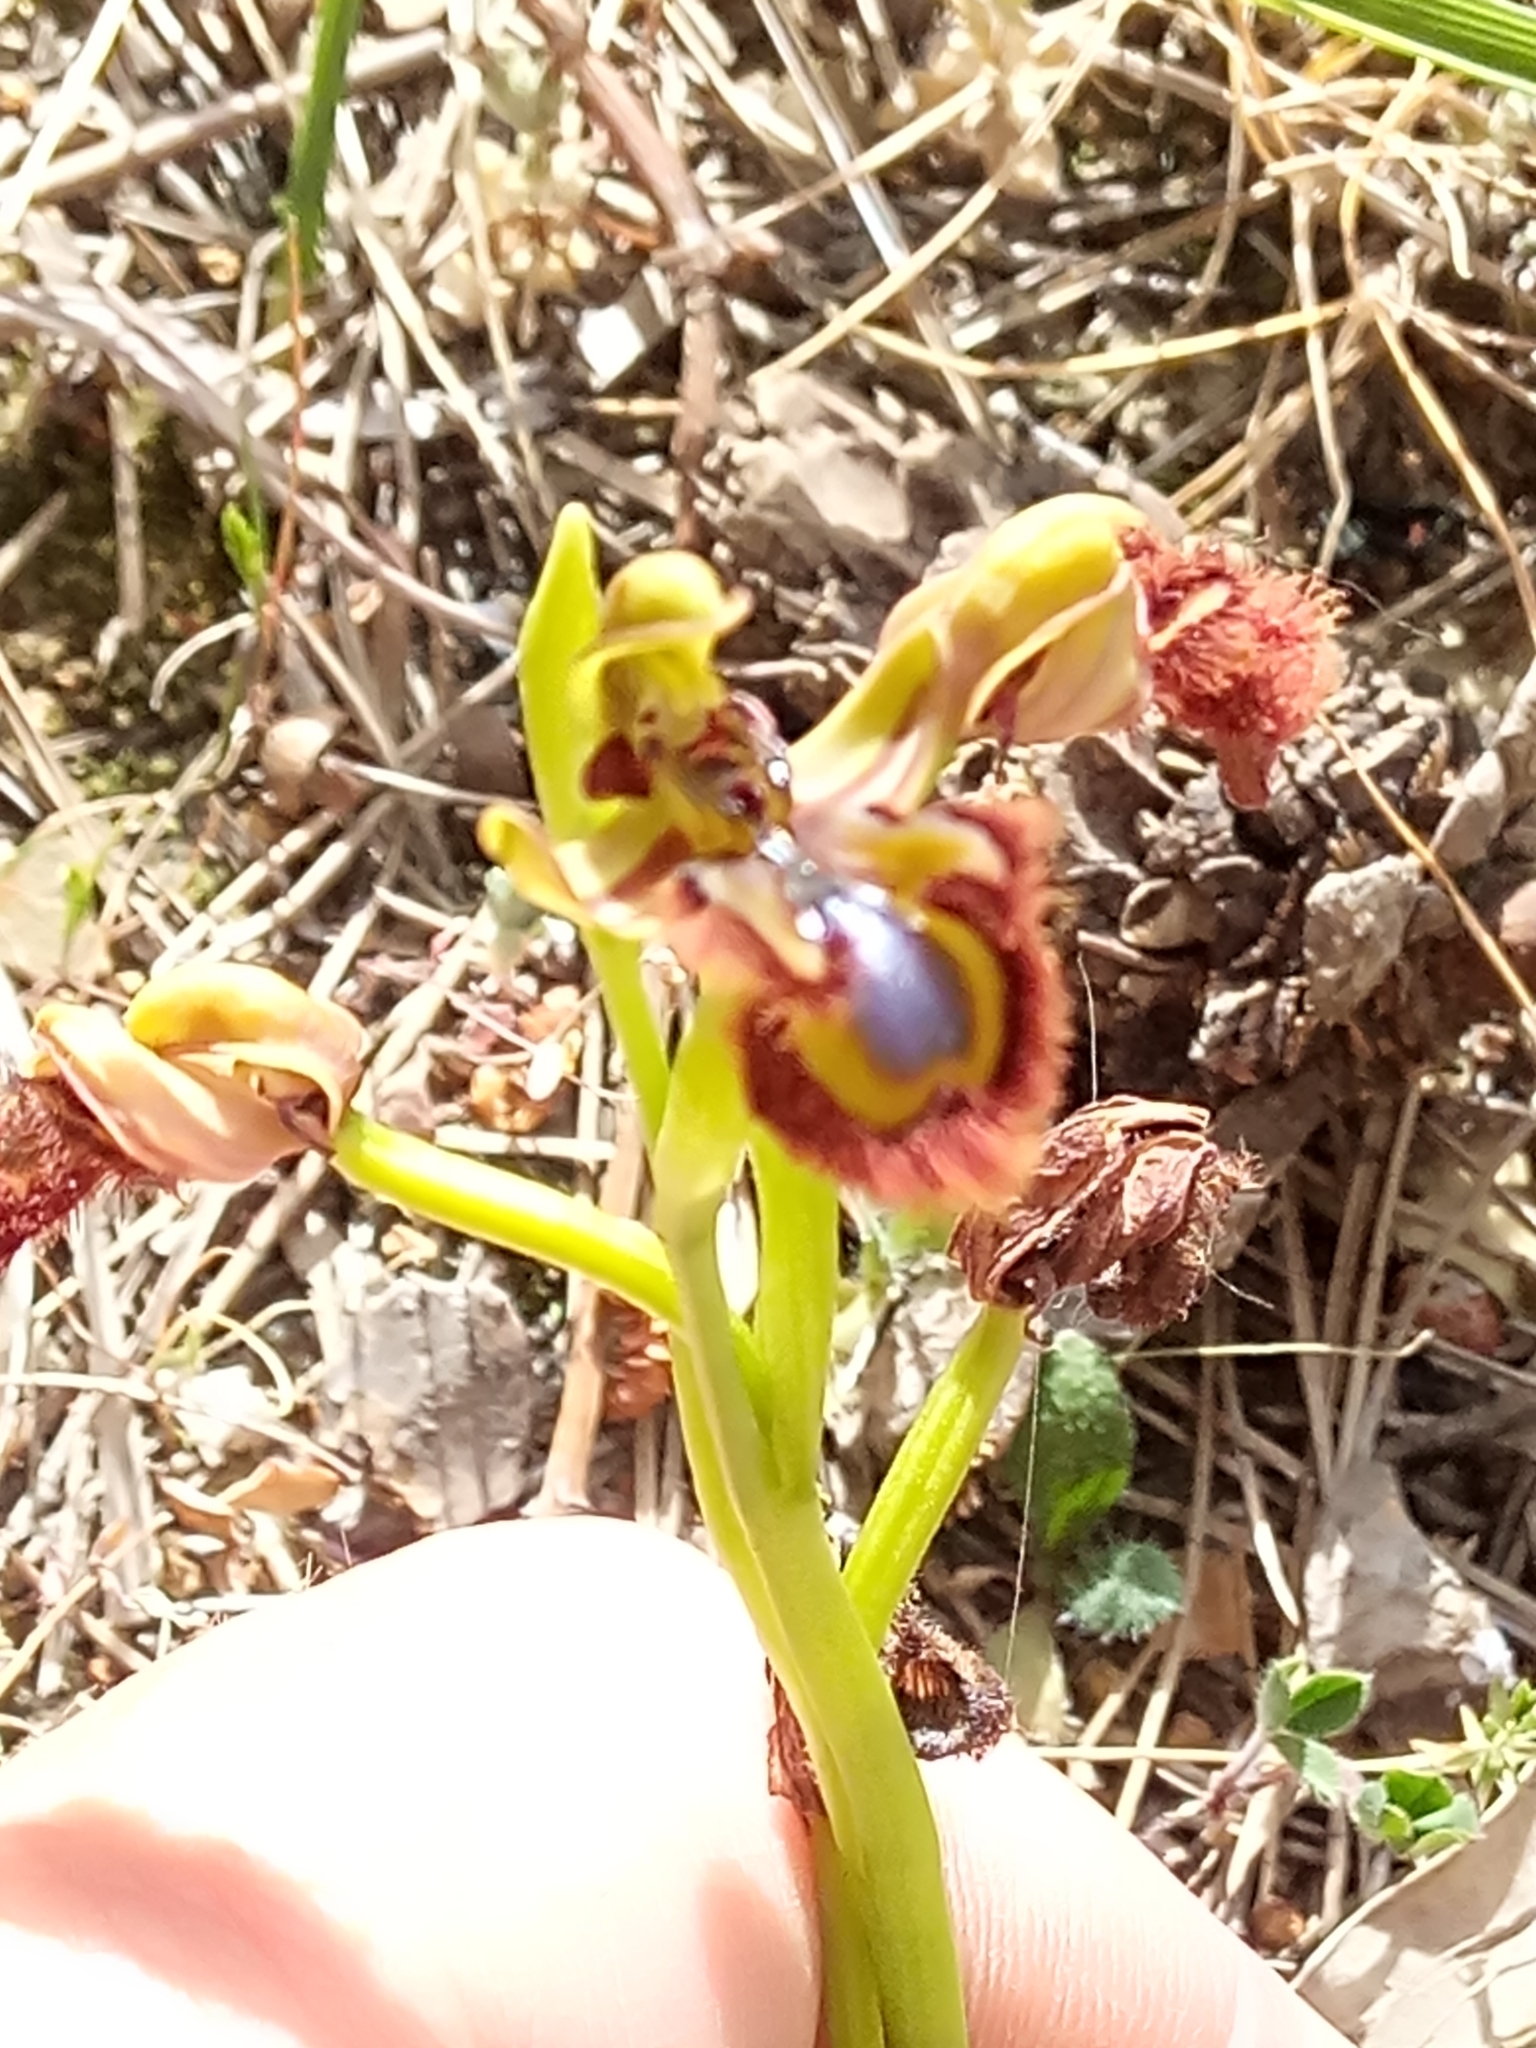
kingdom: Plantae
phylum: Tracheophyta
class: Liliopsida
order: Asparagales
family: Orchidaceae
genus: Ophrys
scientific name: Ophrys speculum
